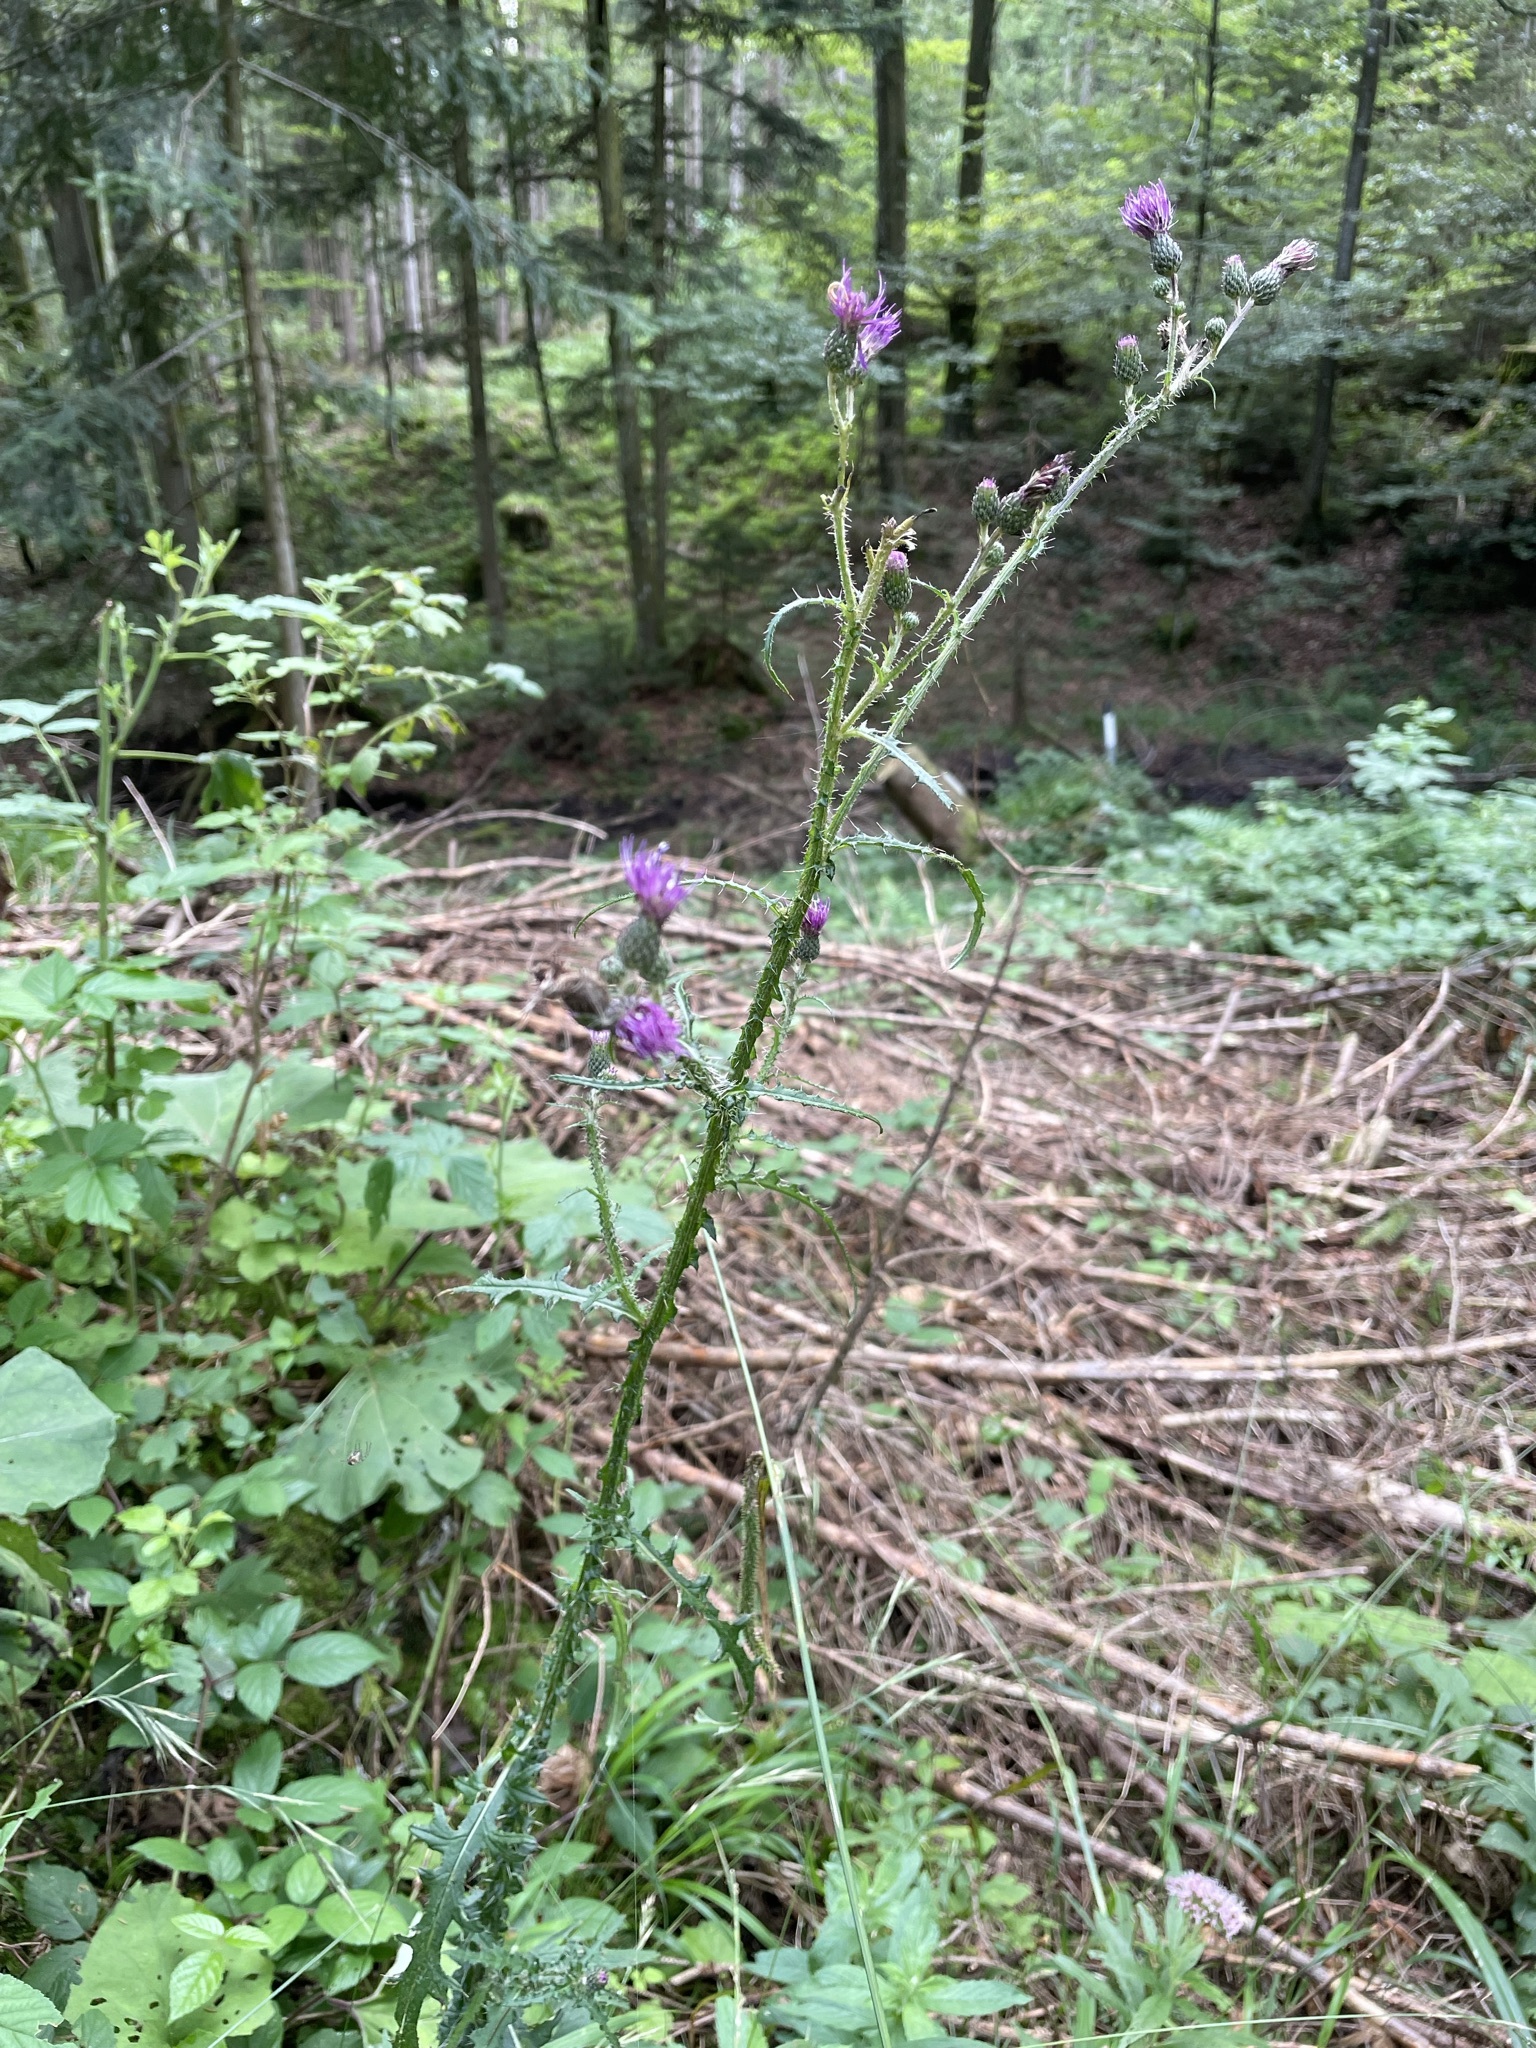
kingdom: Plantae
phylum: Tracheophyta
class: Magnoliopsida
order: Asterales
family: Asteraceae
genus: Cirsium
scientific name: Cirsium palustre
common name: Marsh thistle
